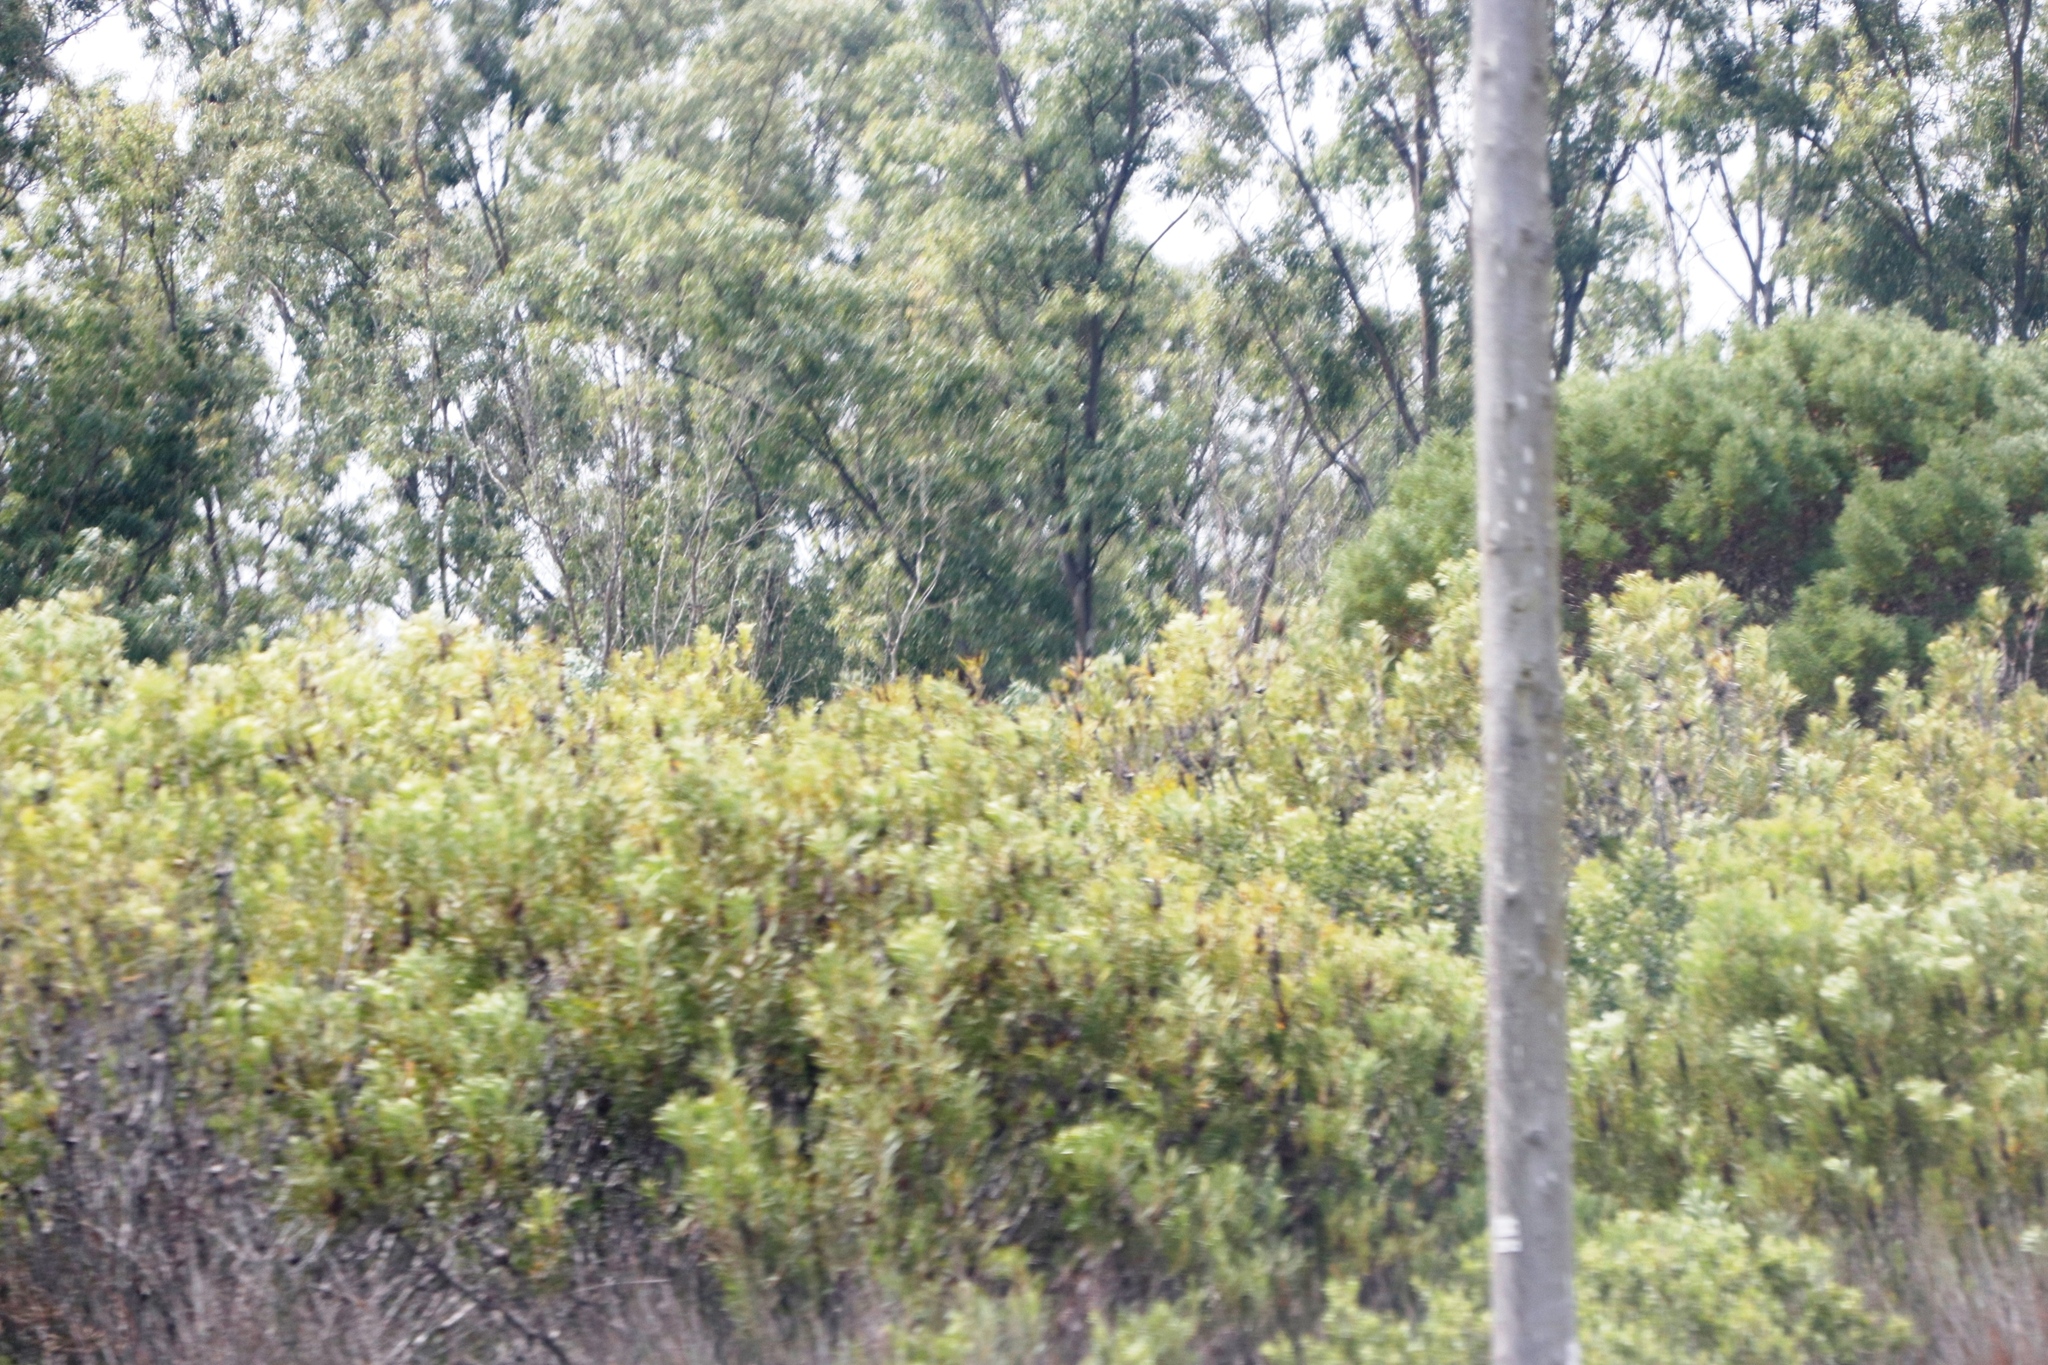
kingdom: Plantae
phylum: Tracheophyta
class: Magnoliopsida
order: Proteales
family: Proteaceae
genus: Protea
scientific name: Protea repens
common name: Sugarbush
